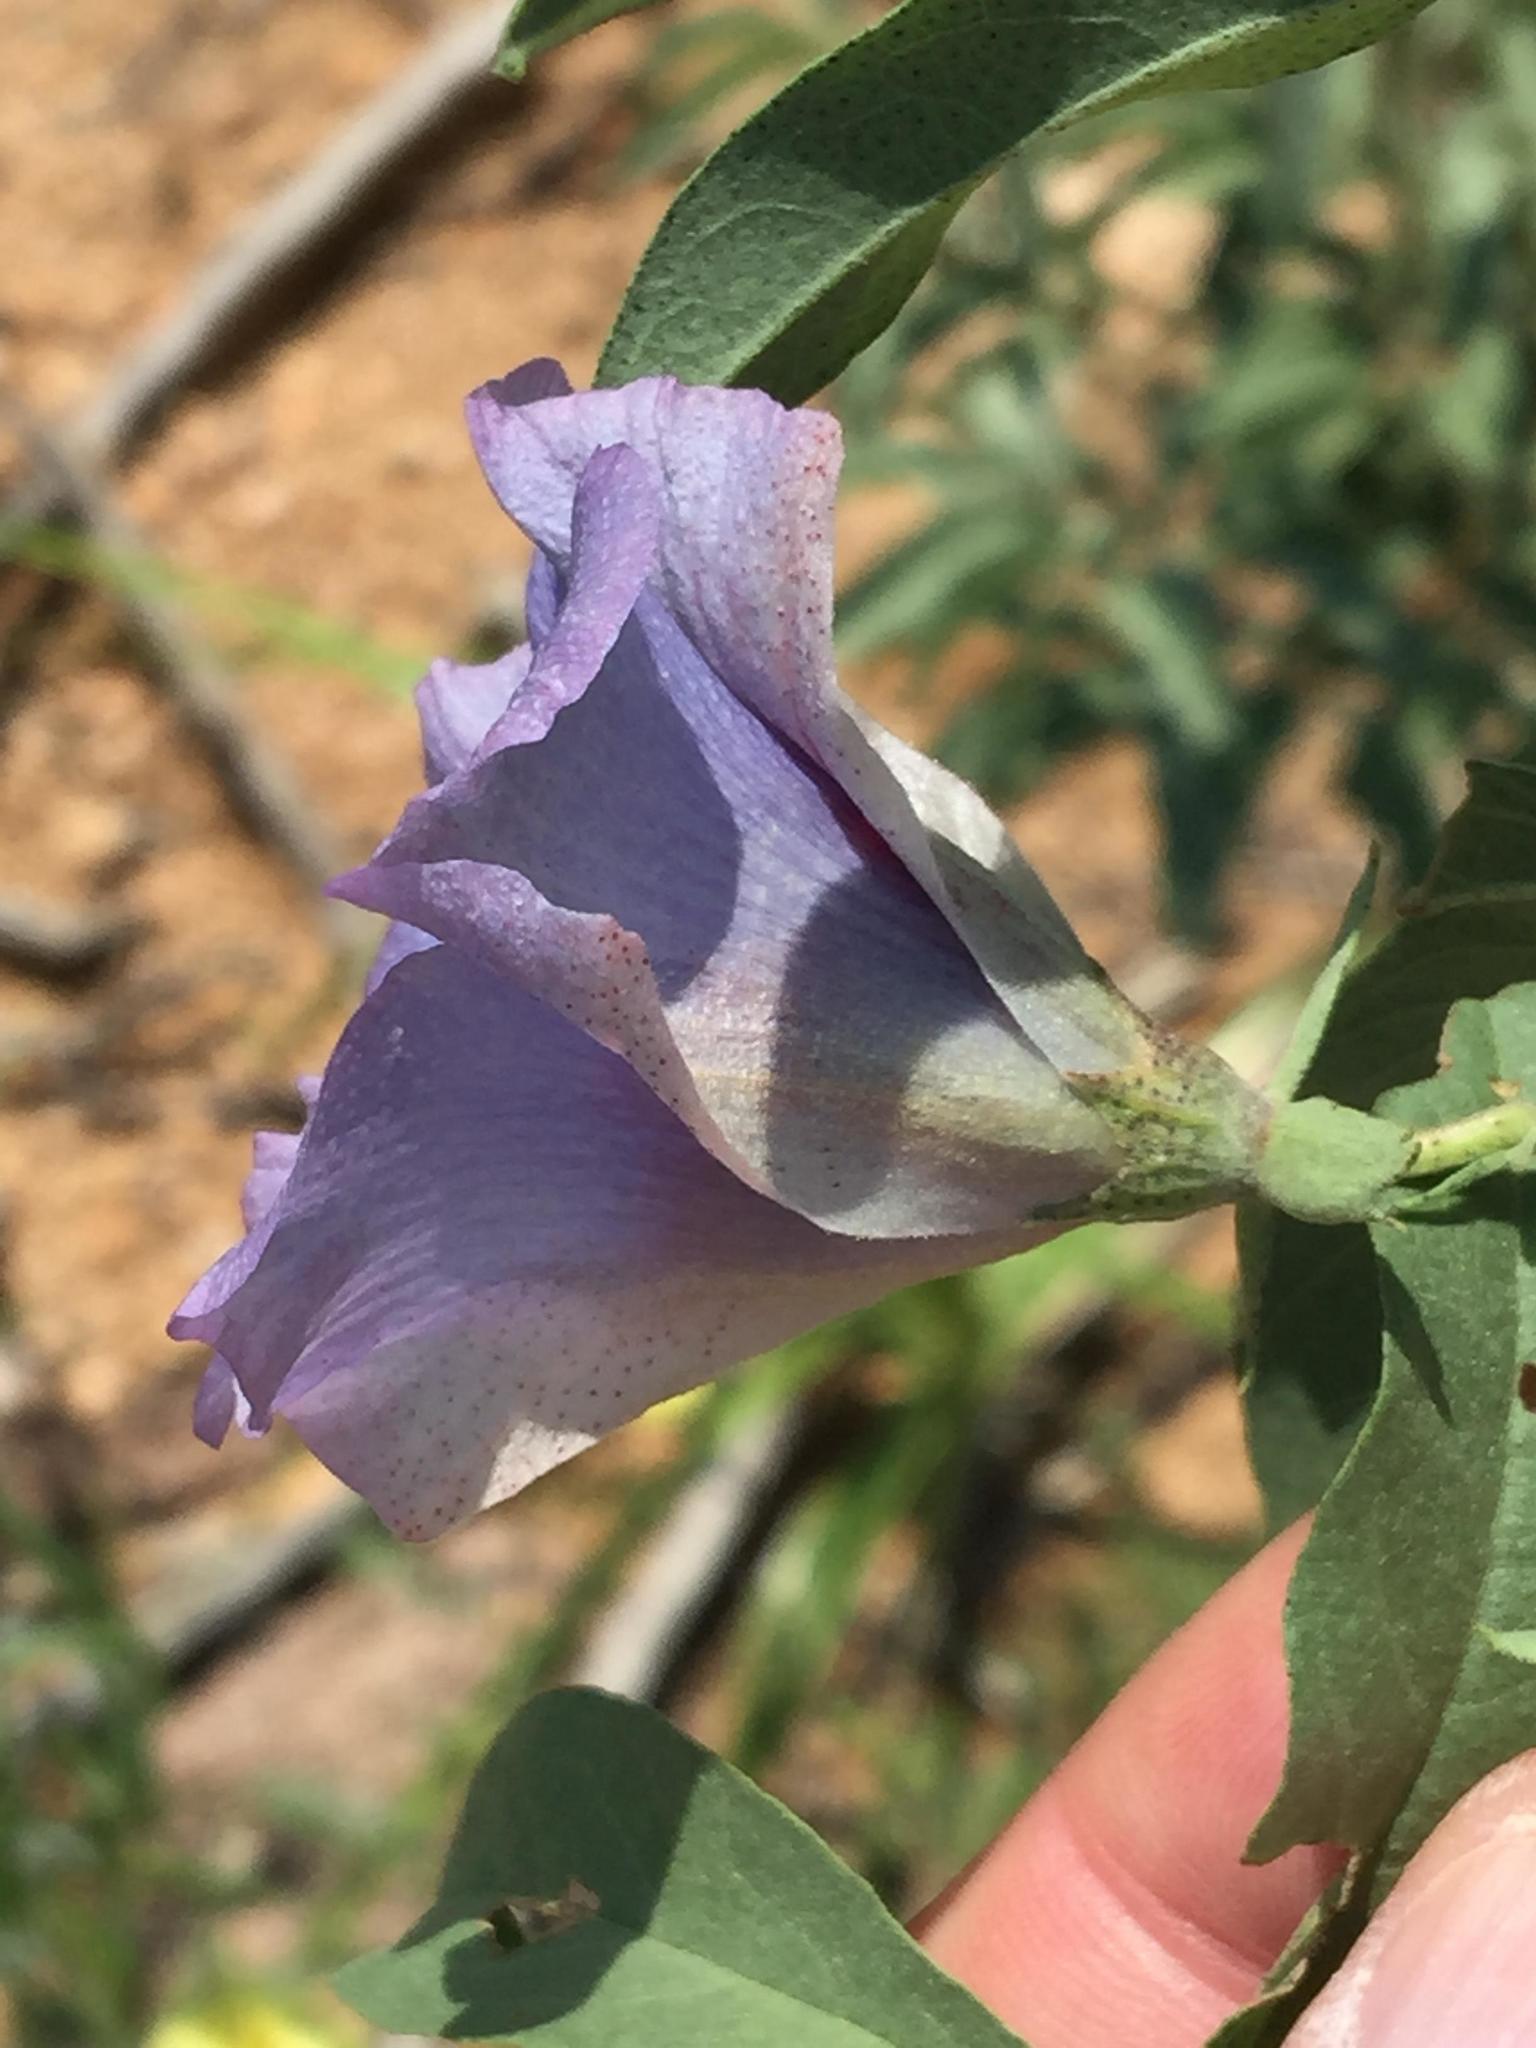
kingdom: Plantae
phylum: Tracheophyta
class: Magnoliopsida
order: Malvales
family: Malvaceae
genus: Gossypium
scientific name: Gossypium triphyllum
